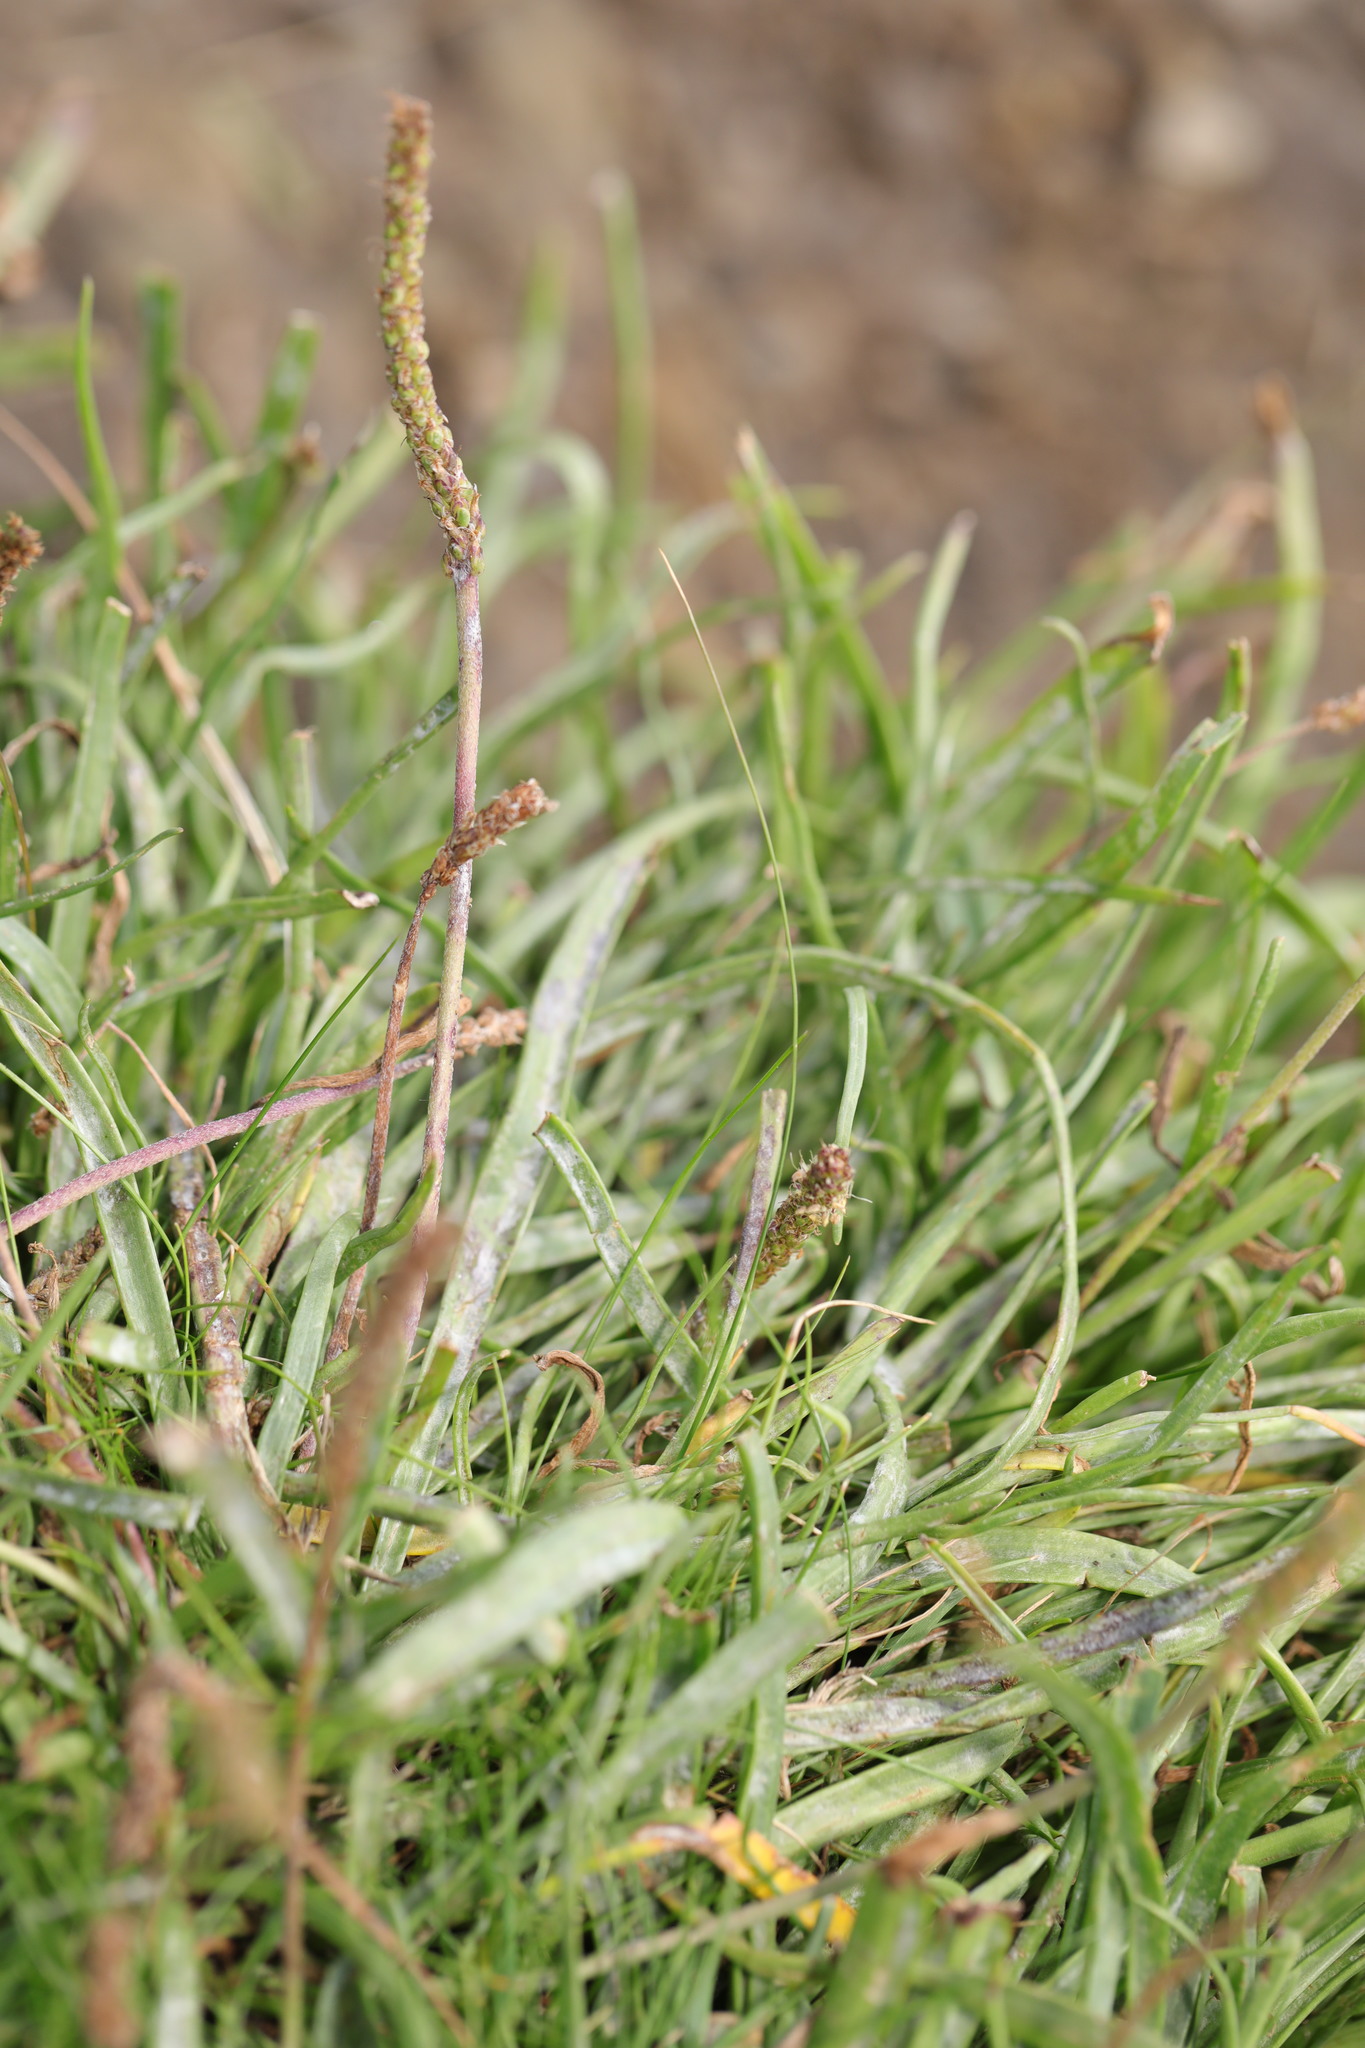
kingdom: Plantae
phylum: Tracheophyta
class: Magnoliopsida
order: Lamiales
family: Plantaginaceae
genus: Plantago
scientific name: Plantago maritima
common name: Sea plantain
